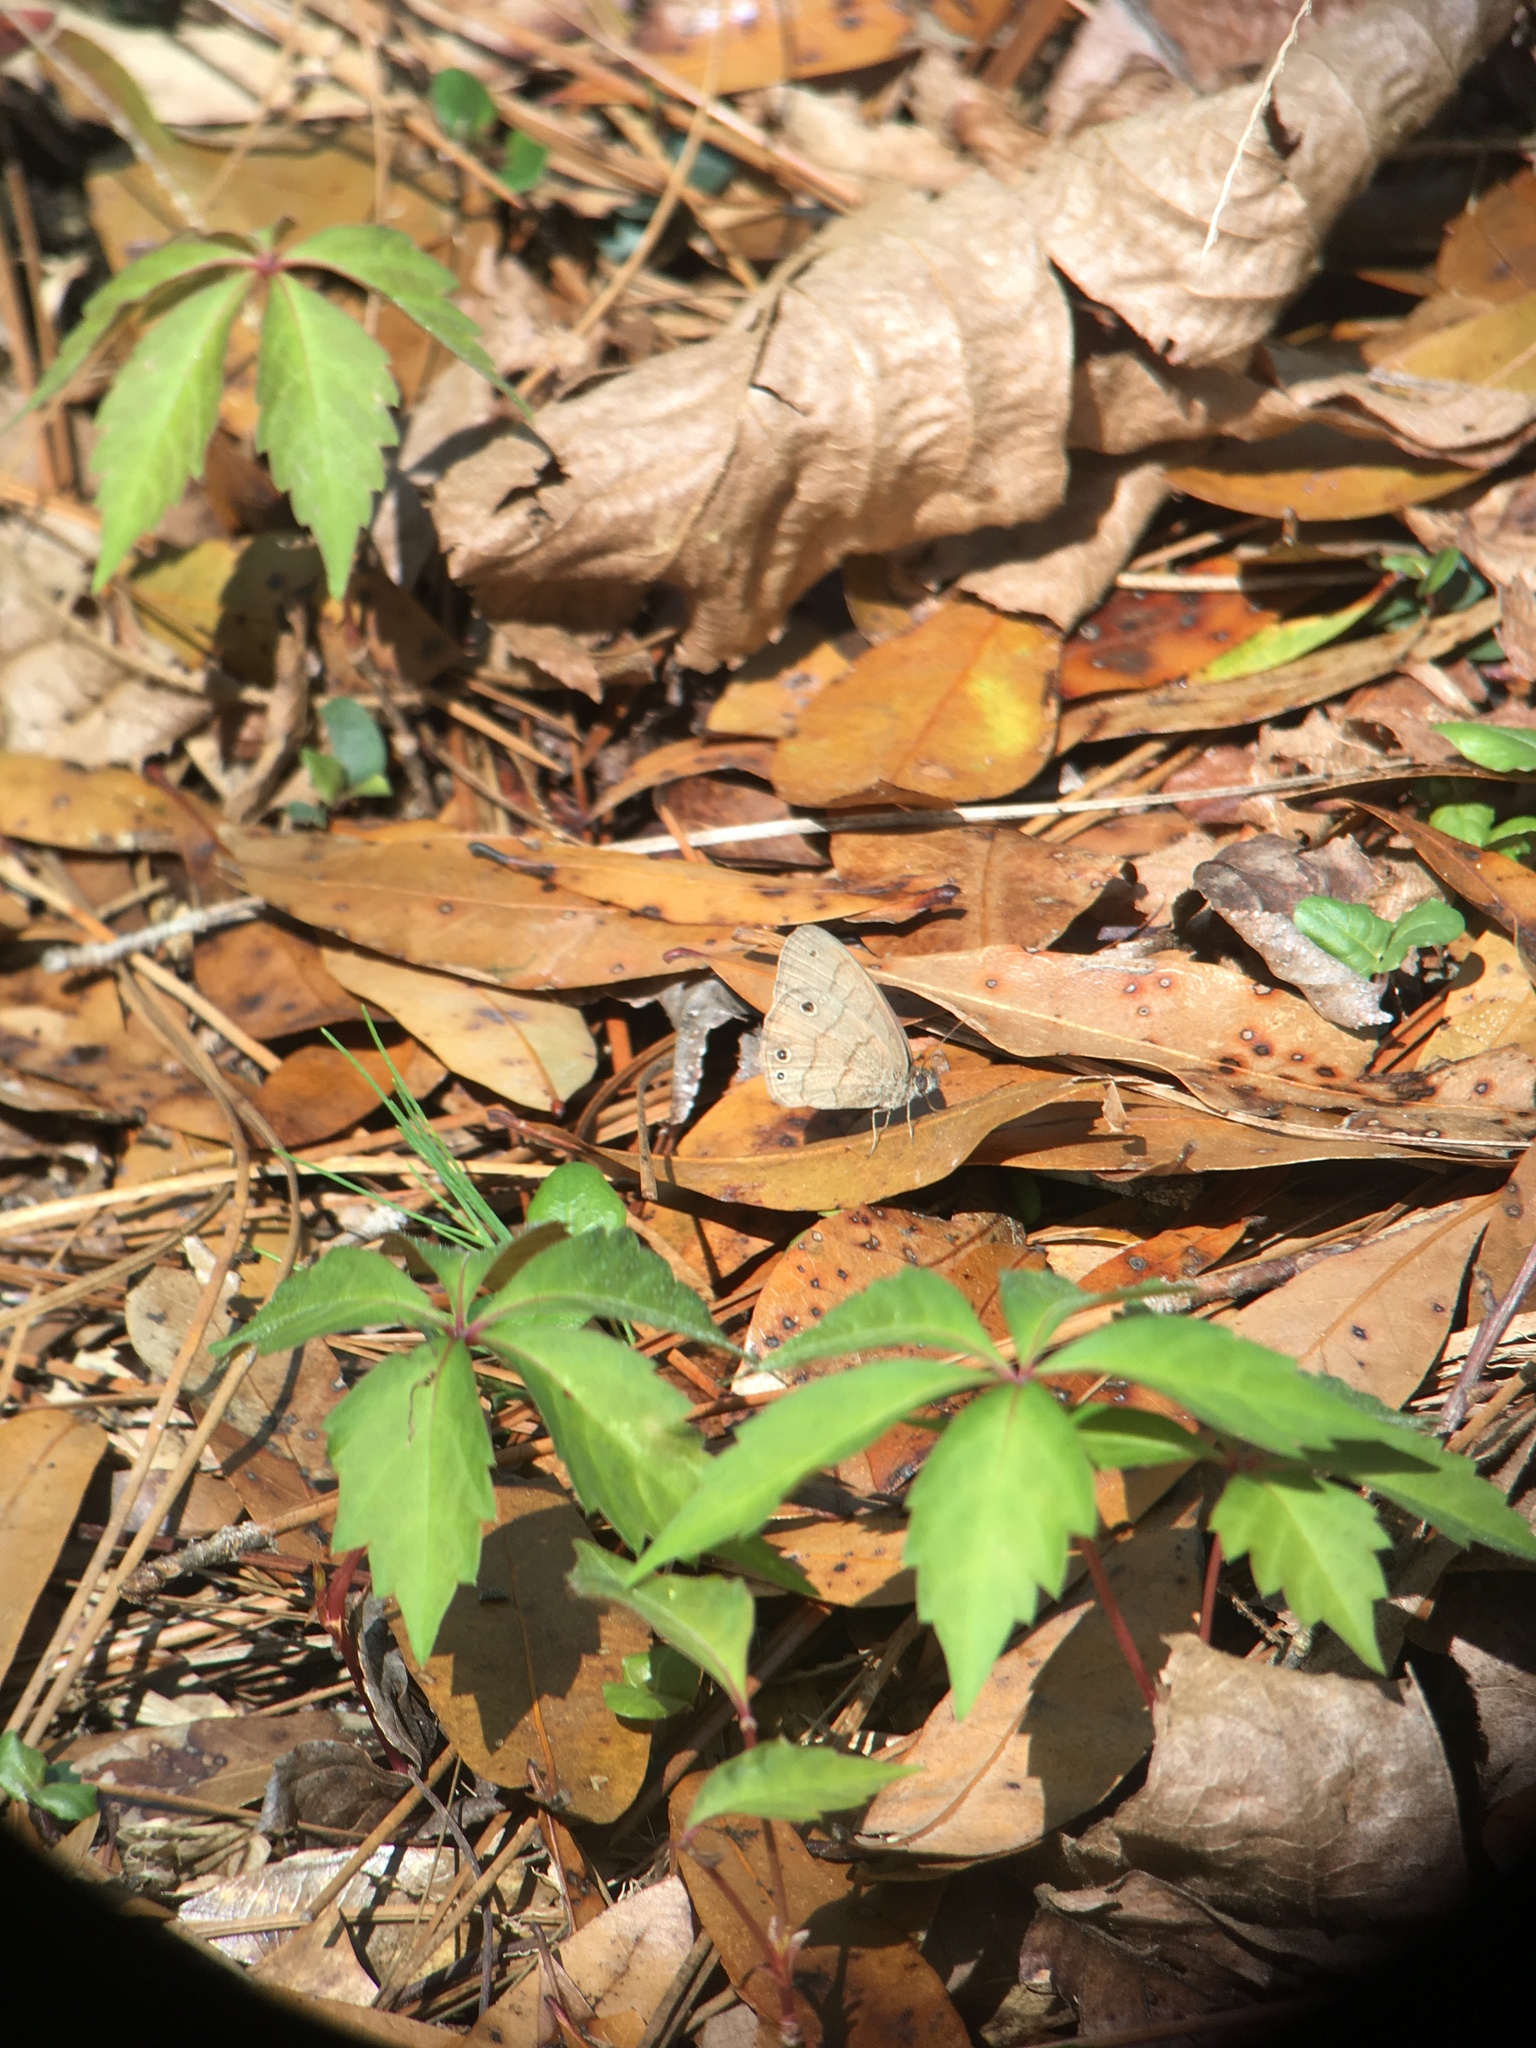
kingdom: Animalia
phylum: Arthropoda
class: Insecta
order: Lepidoptera
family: Nymphalidae
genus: Hermeuptychia
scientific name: Hermeuptychia intricata
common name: Intricate satyr
